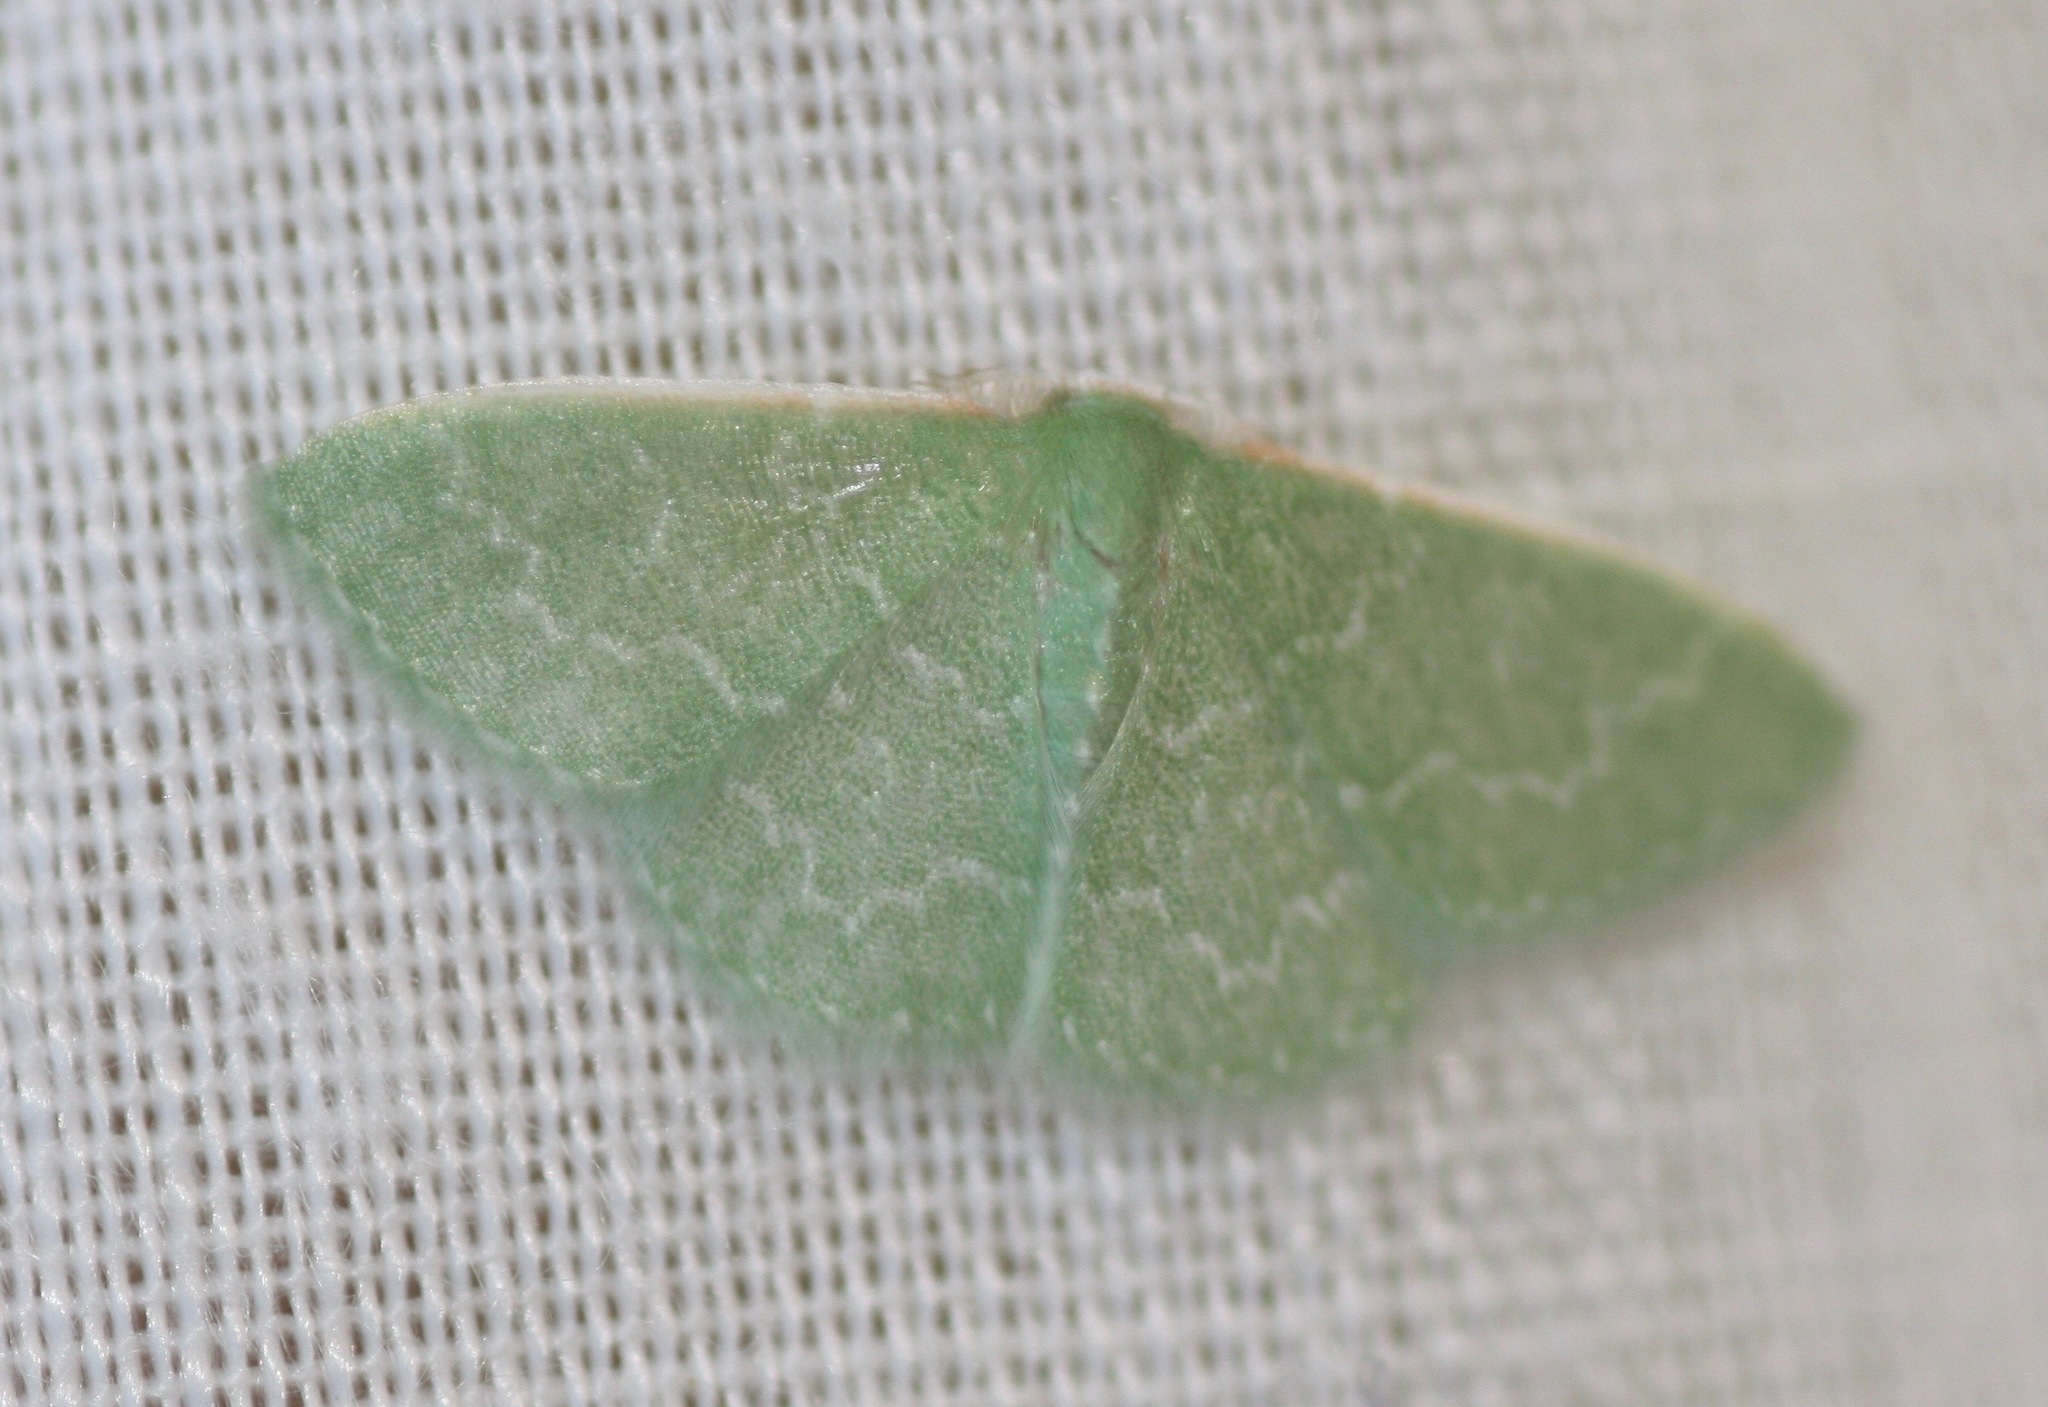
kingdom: Animalia
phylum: Arthropoda
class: Insecta
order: Lepidoptera
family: Geometridae
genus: Synchlora
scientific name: Synchlora frondaria
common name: Southern emerald
